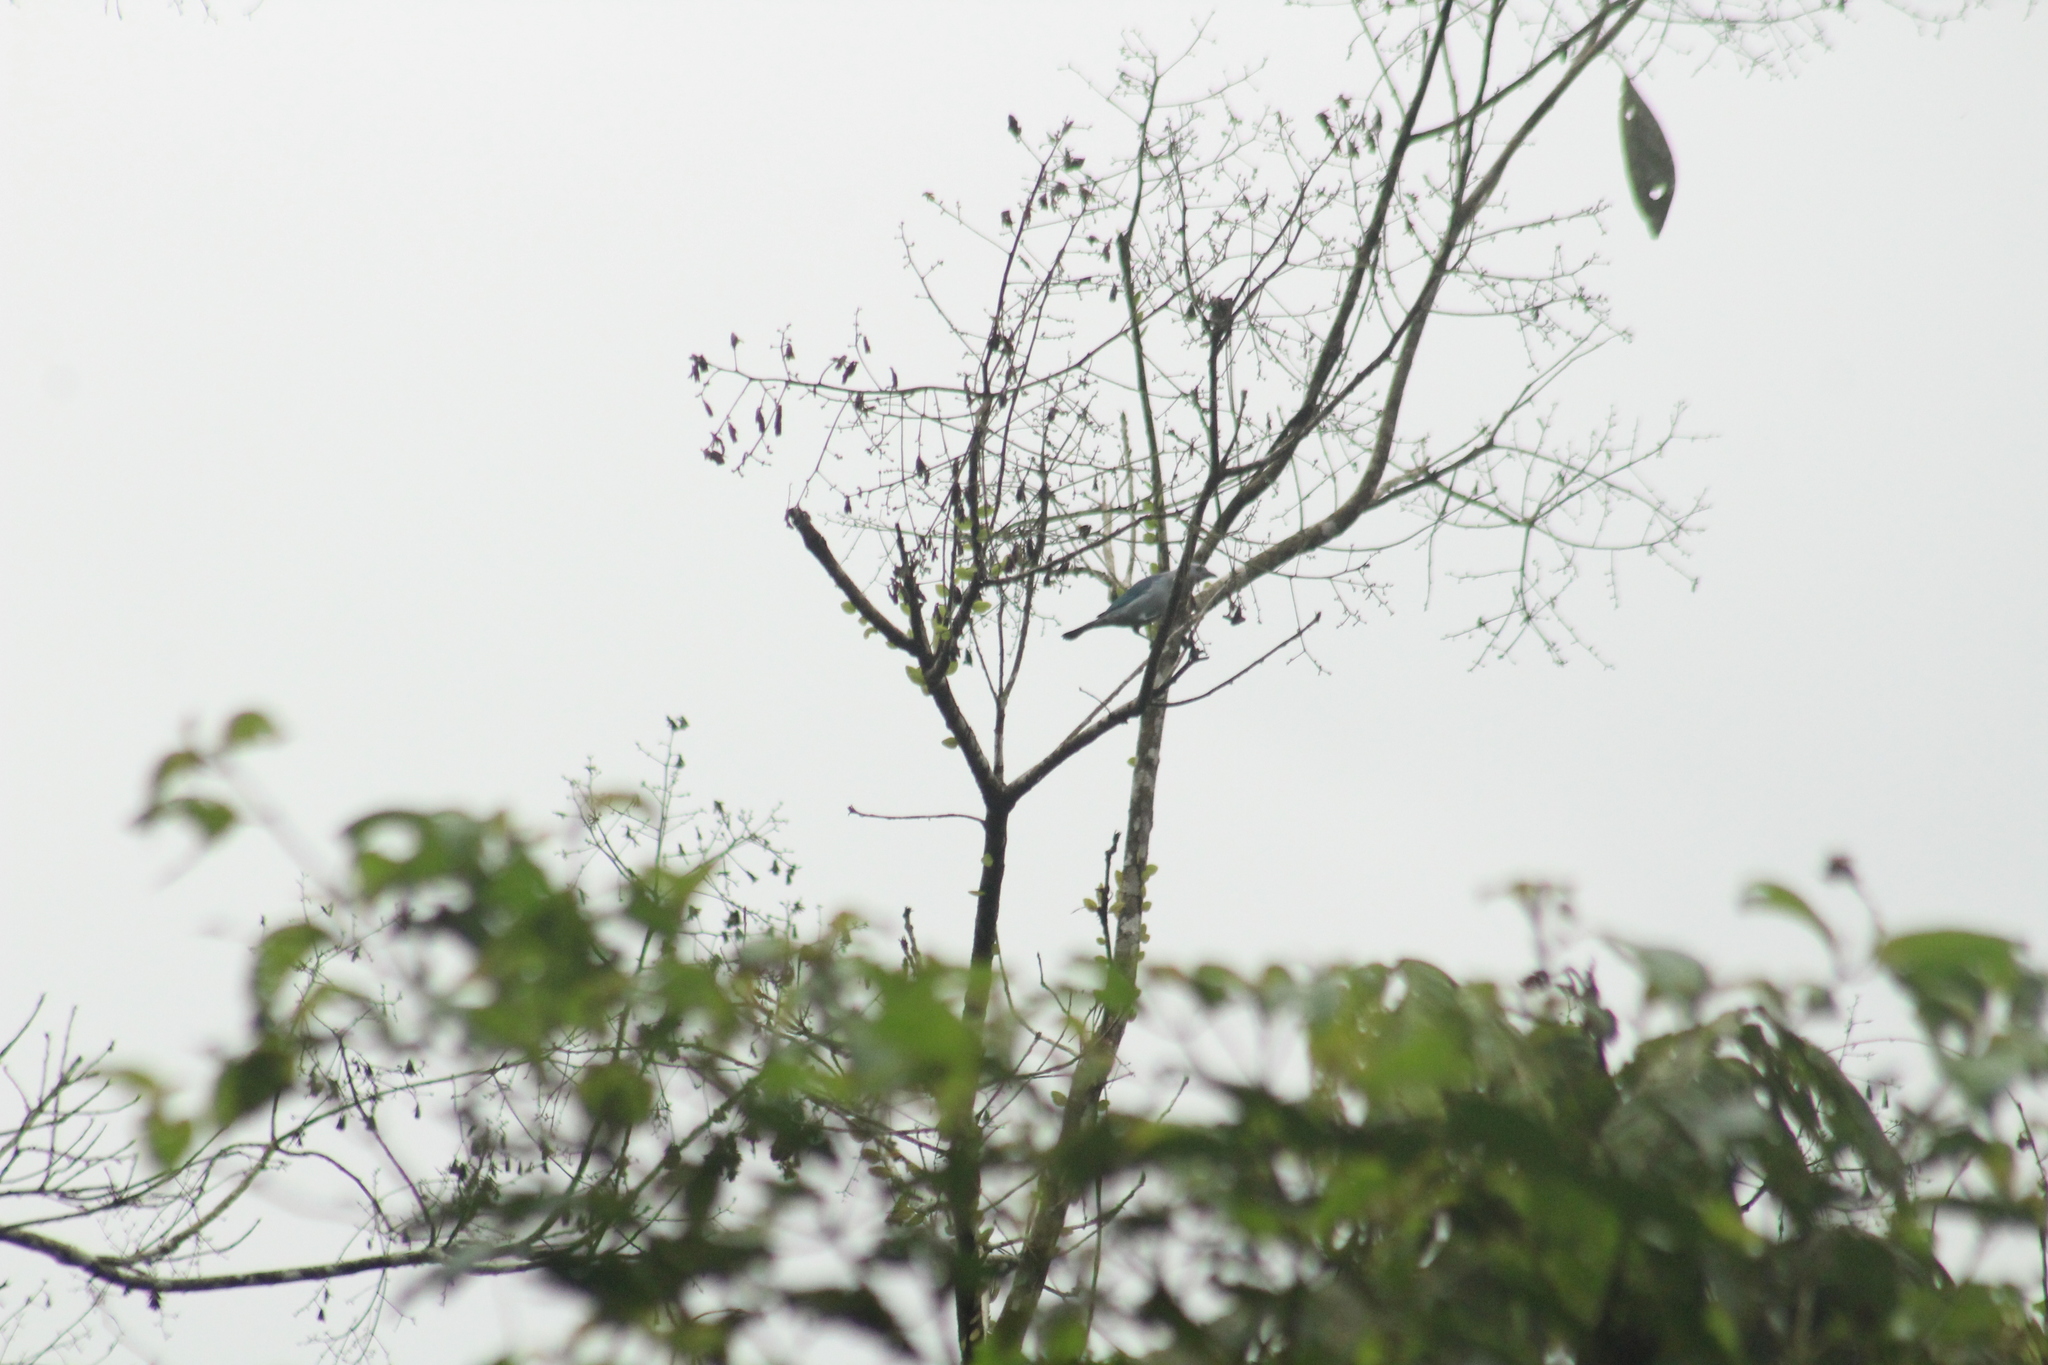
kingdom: Animalia
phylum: Chordata
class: Aves
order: Passeriformes
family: Thraupidae
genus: Thraupis
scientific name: Thraupis episcopus
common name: Blue-grey tanager
